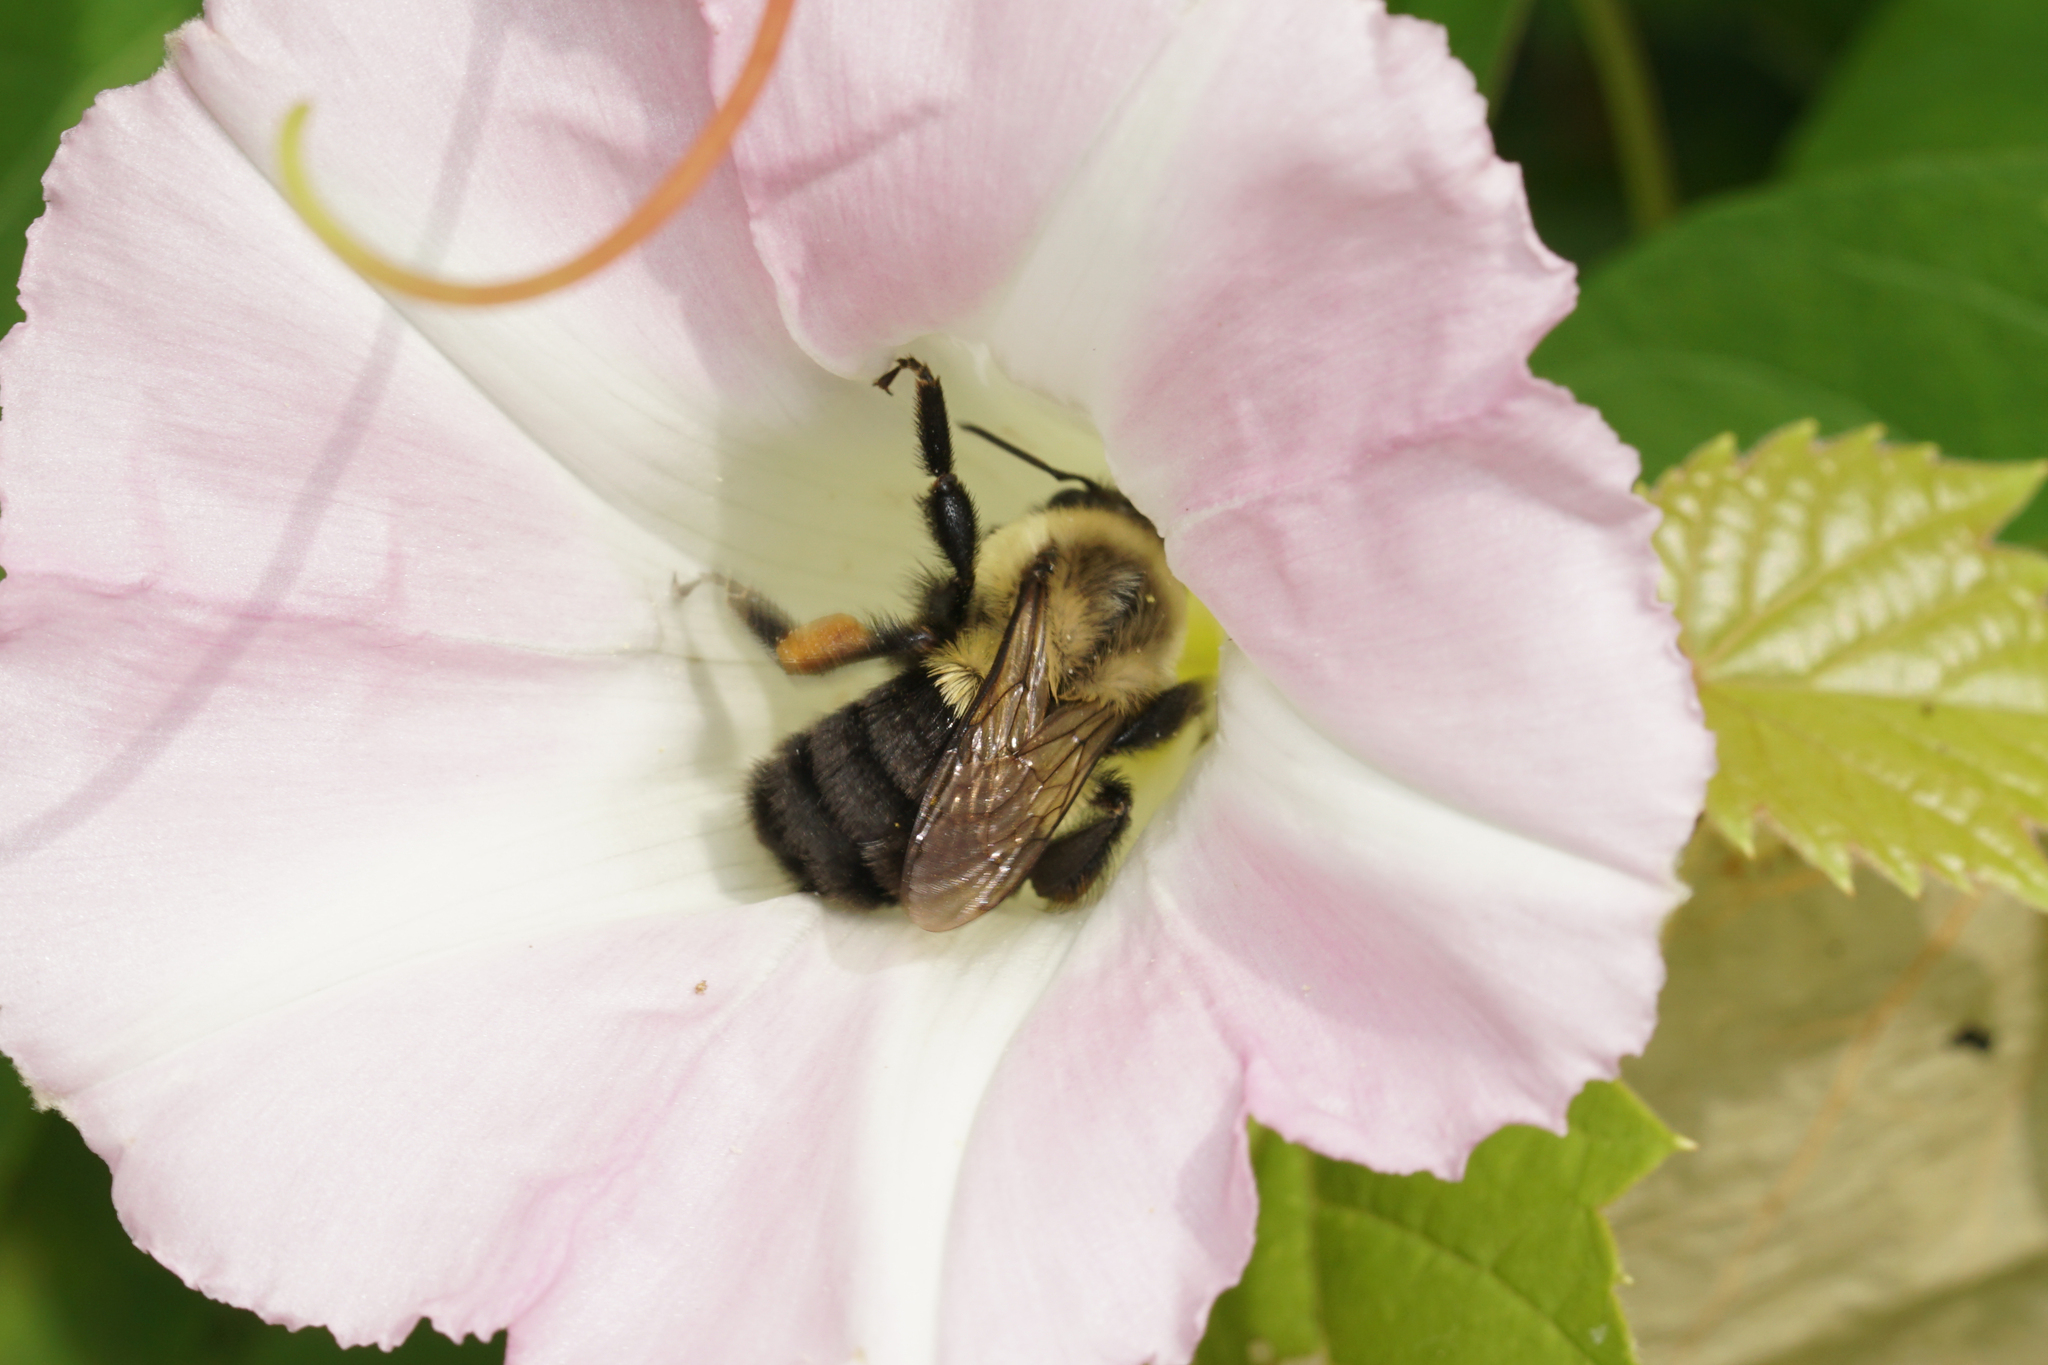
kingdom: Animalia
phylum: Arthropoda
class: Insecta
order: Hymenoptera
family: Apidae
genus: Bombus
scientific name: Bombus impatiens
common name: Common eastern bumble bee
